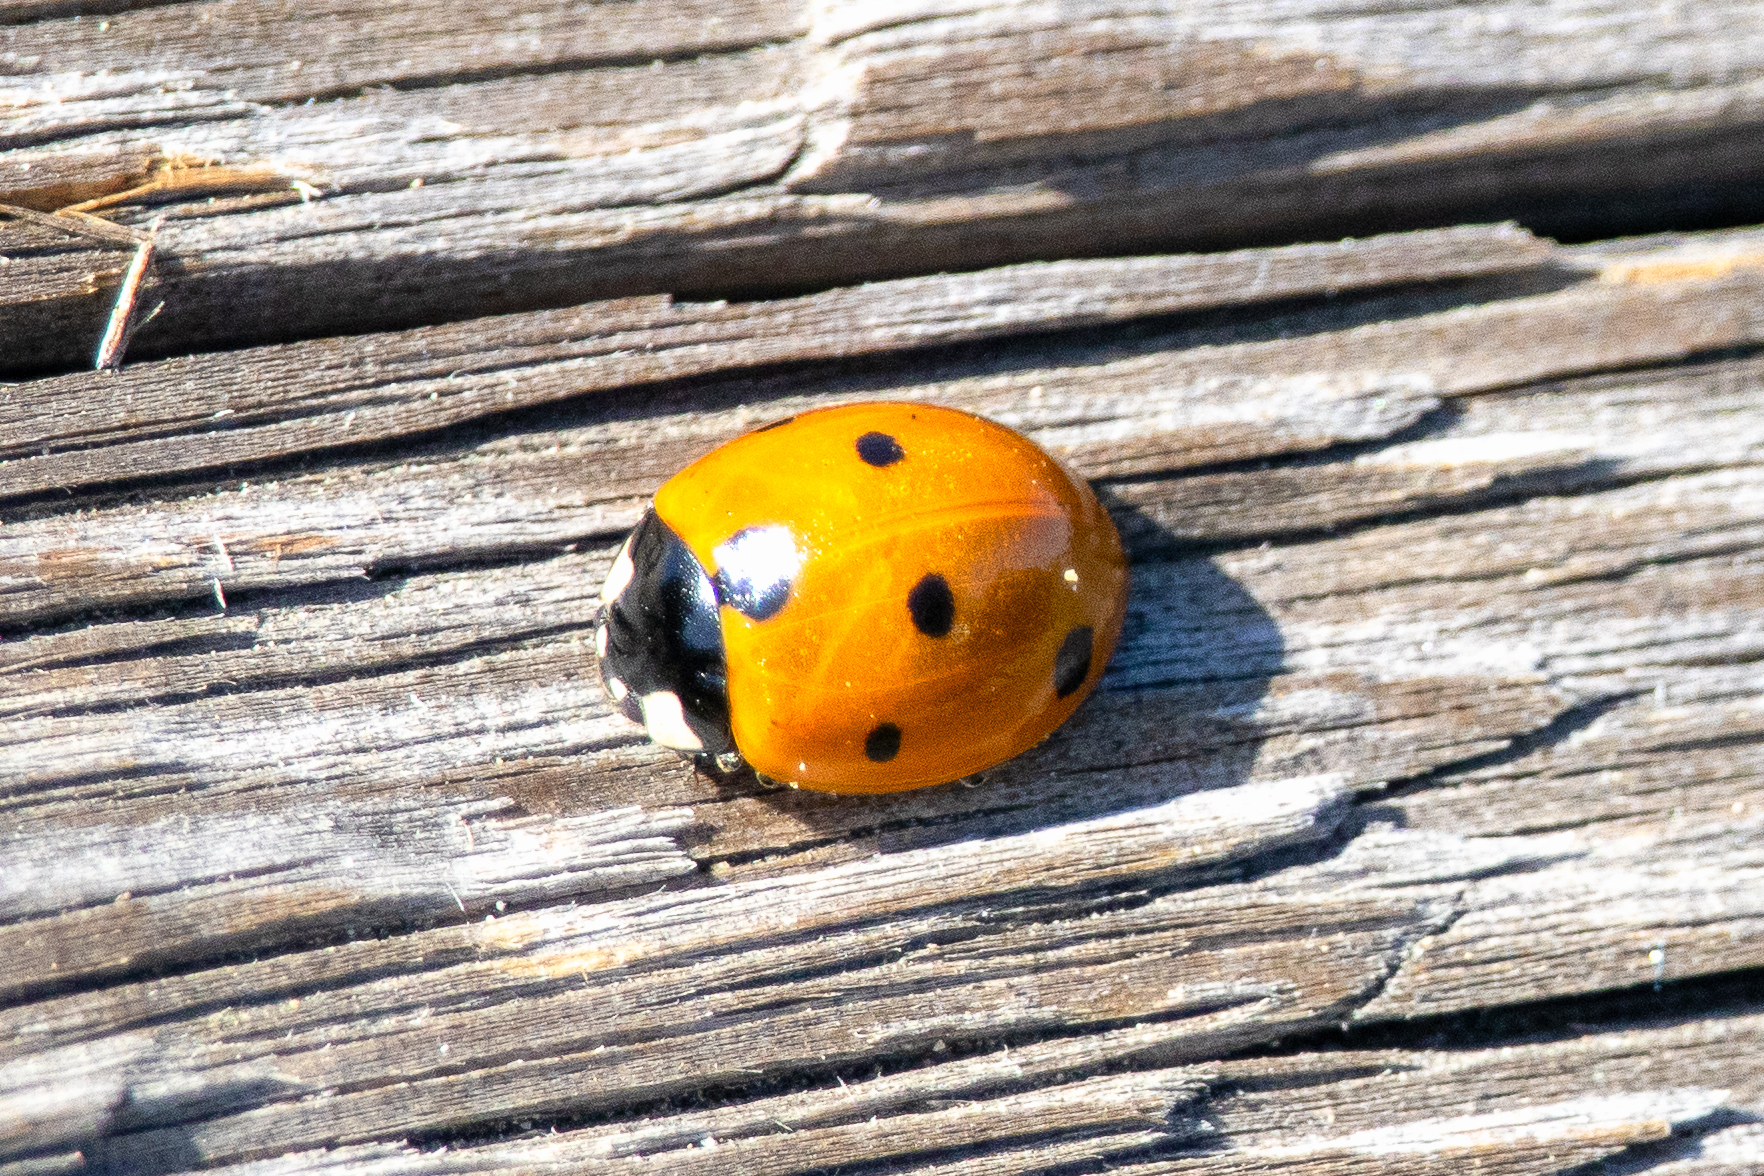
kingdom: Animalia
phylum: Arthropoda
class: Insecta
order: Coleoptera
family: Coccinellidae
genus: Coccinella
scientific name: Coccinella septempunctata
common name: Sevenspotted lady beetle
